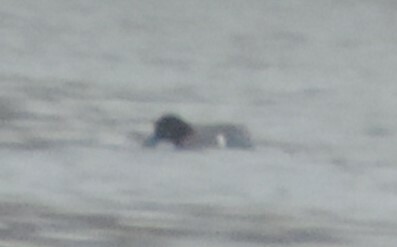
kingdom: Animalia
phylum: Chordata
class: Aves
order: Anseriformes
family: Anatidae
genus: Anas
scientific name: Anas crecca
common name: Eurasian teal
